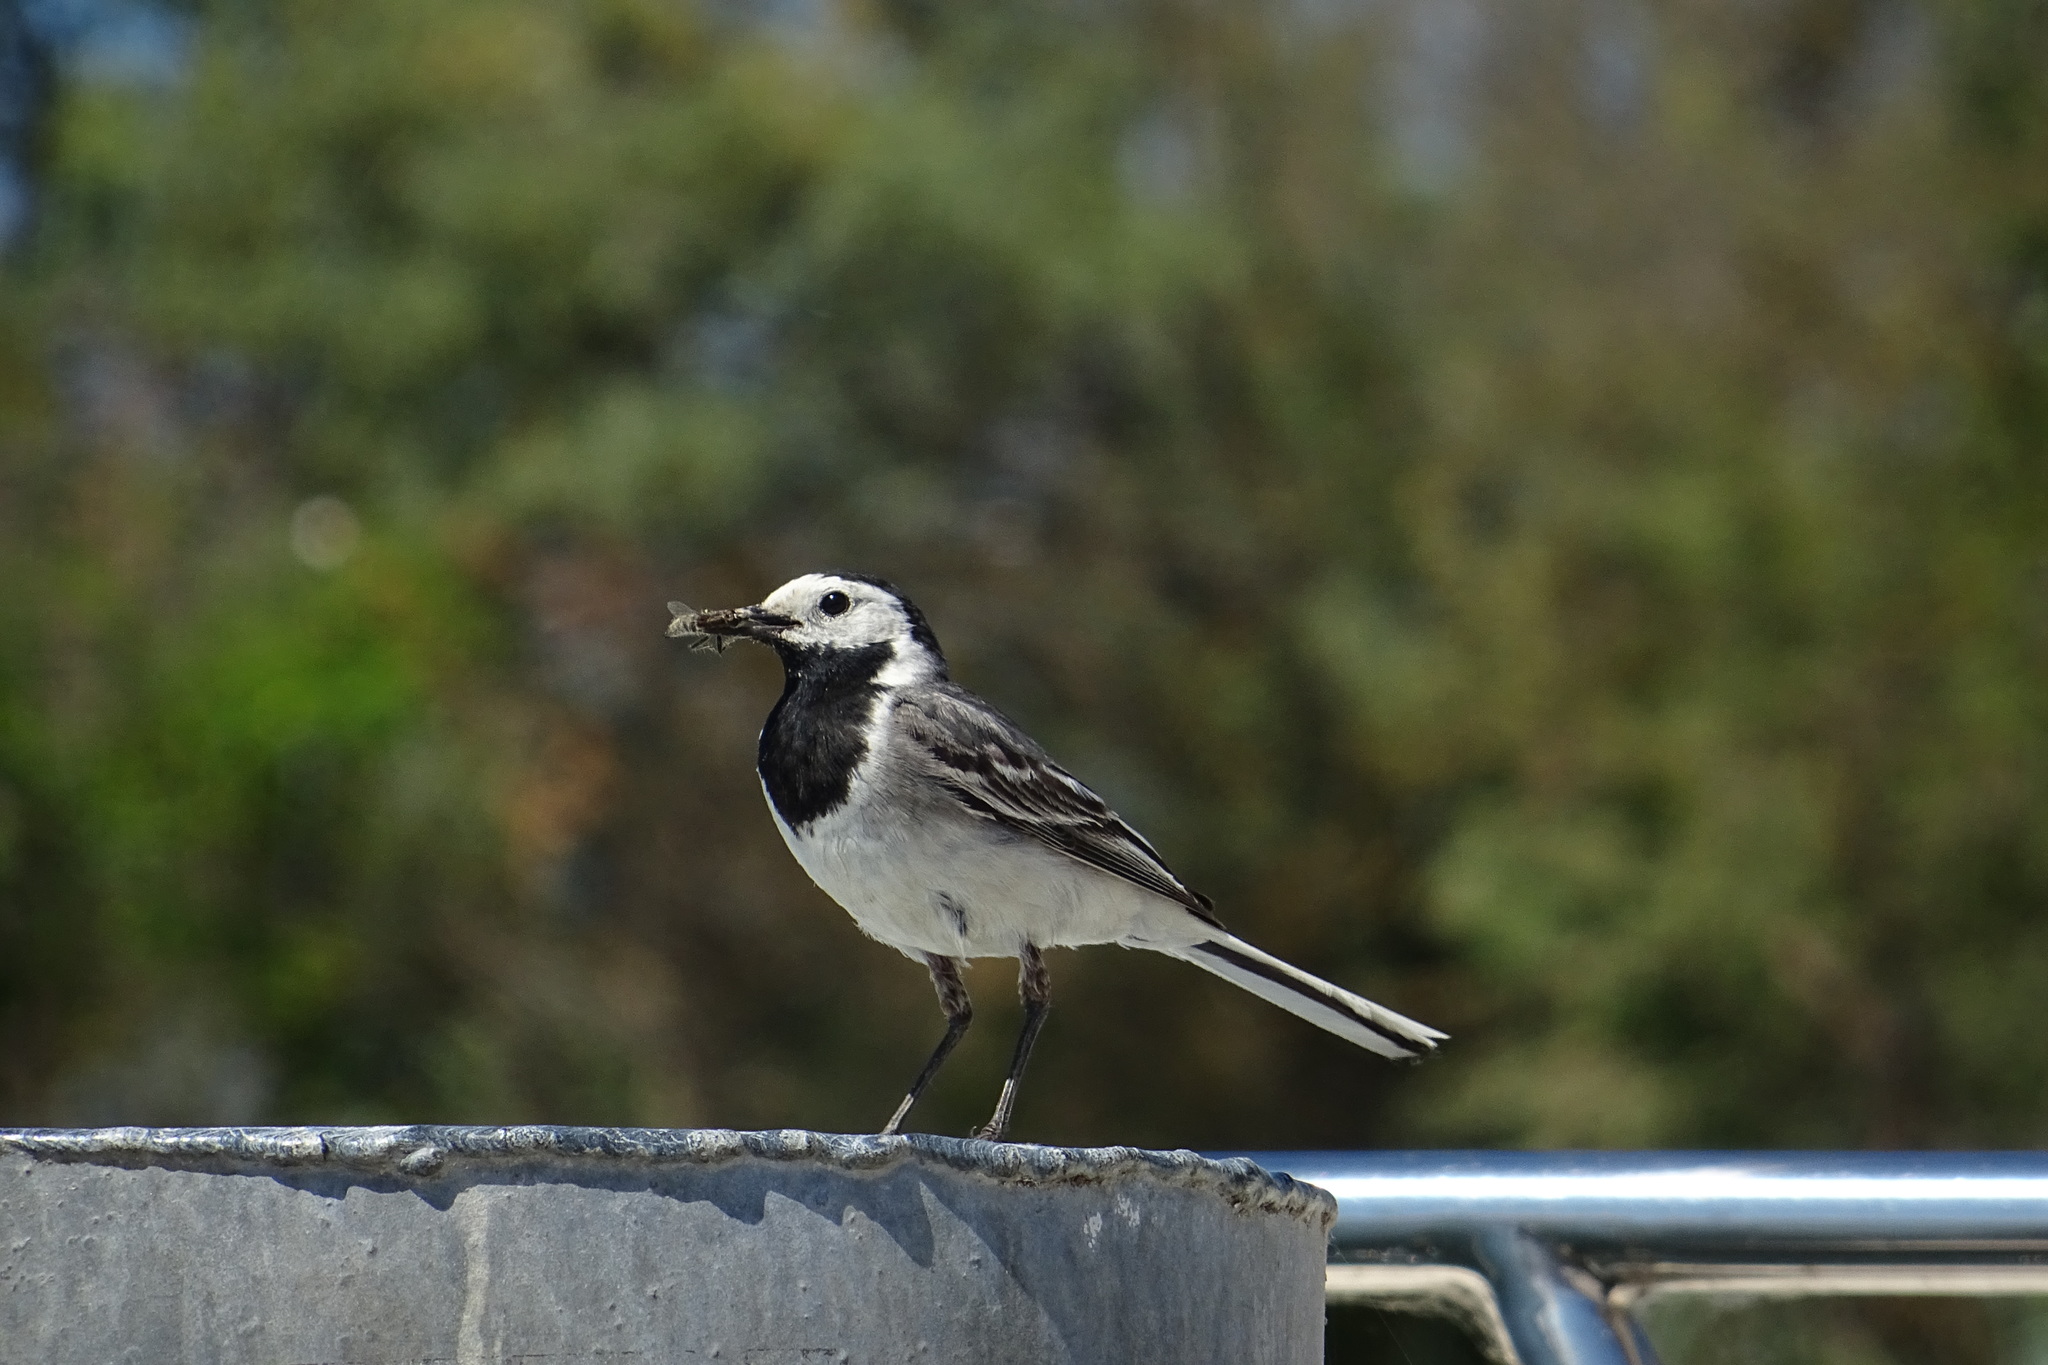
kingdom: Animalia
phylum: Chordata
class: Aves
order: Passeriformes
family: Motacillidae
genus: Motacilla
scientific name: Motacilla alba
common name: White wagtail
